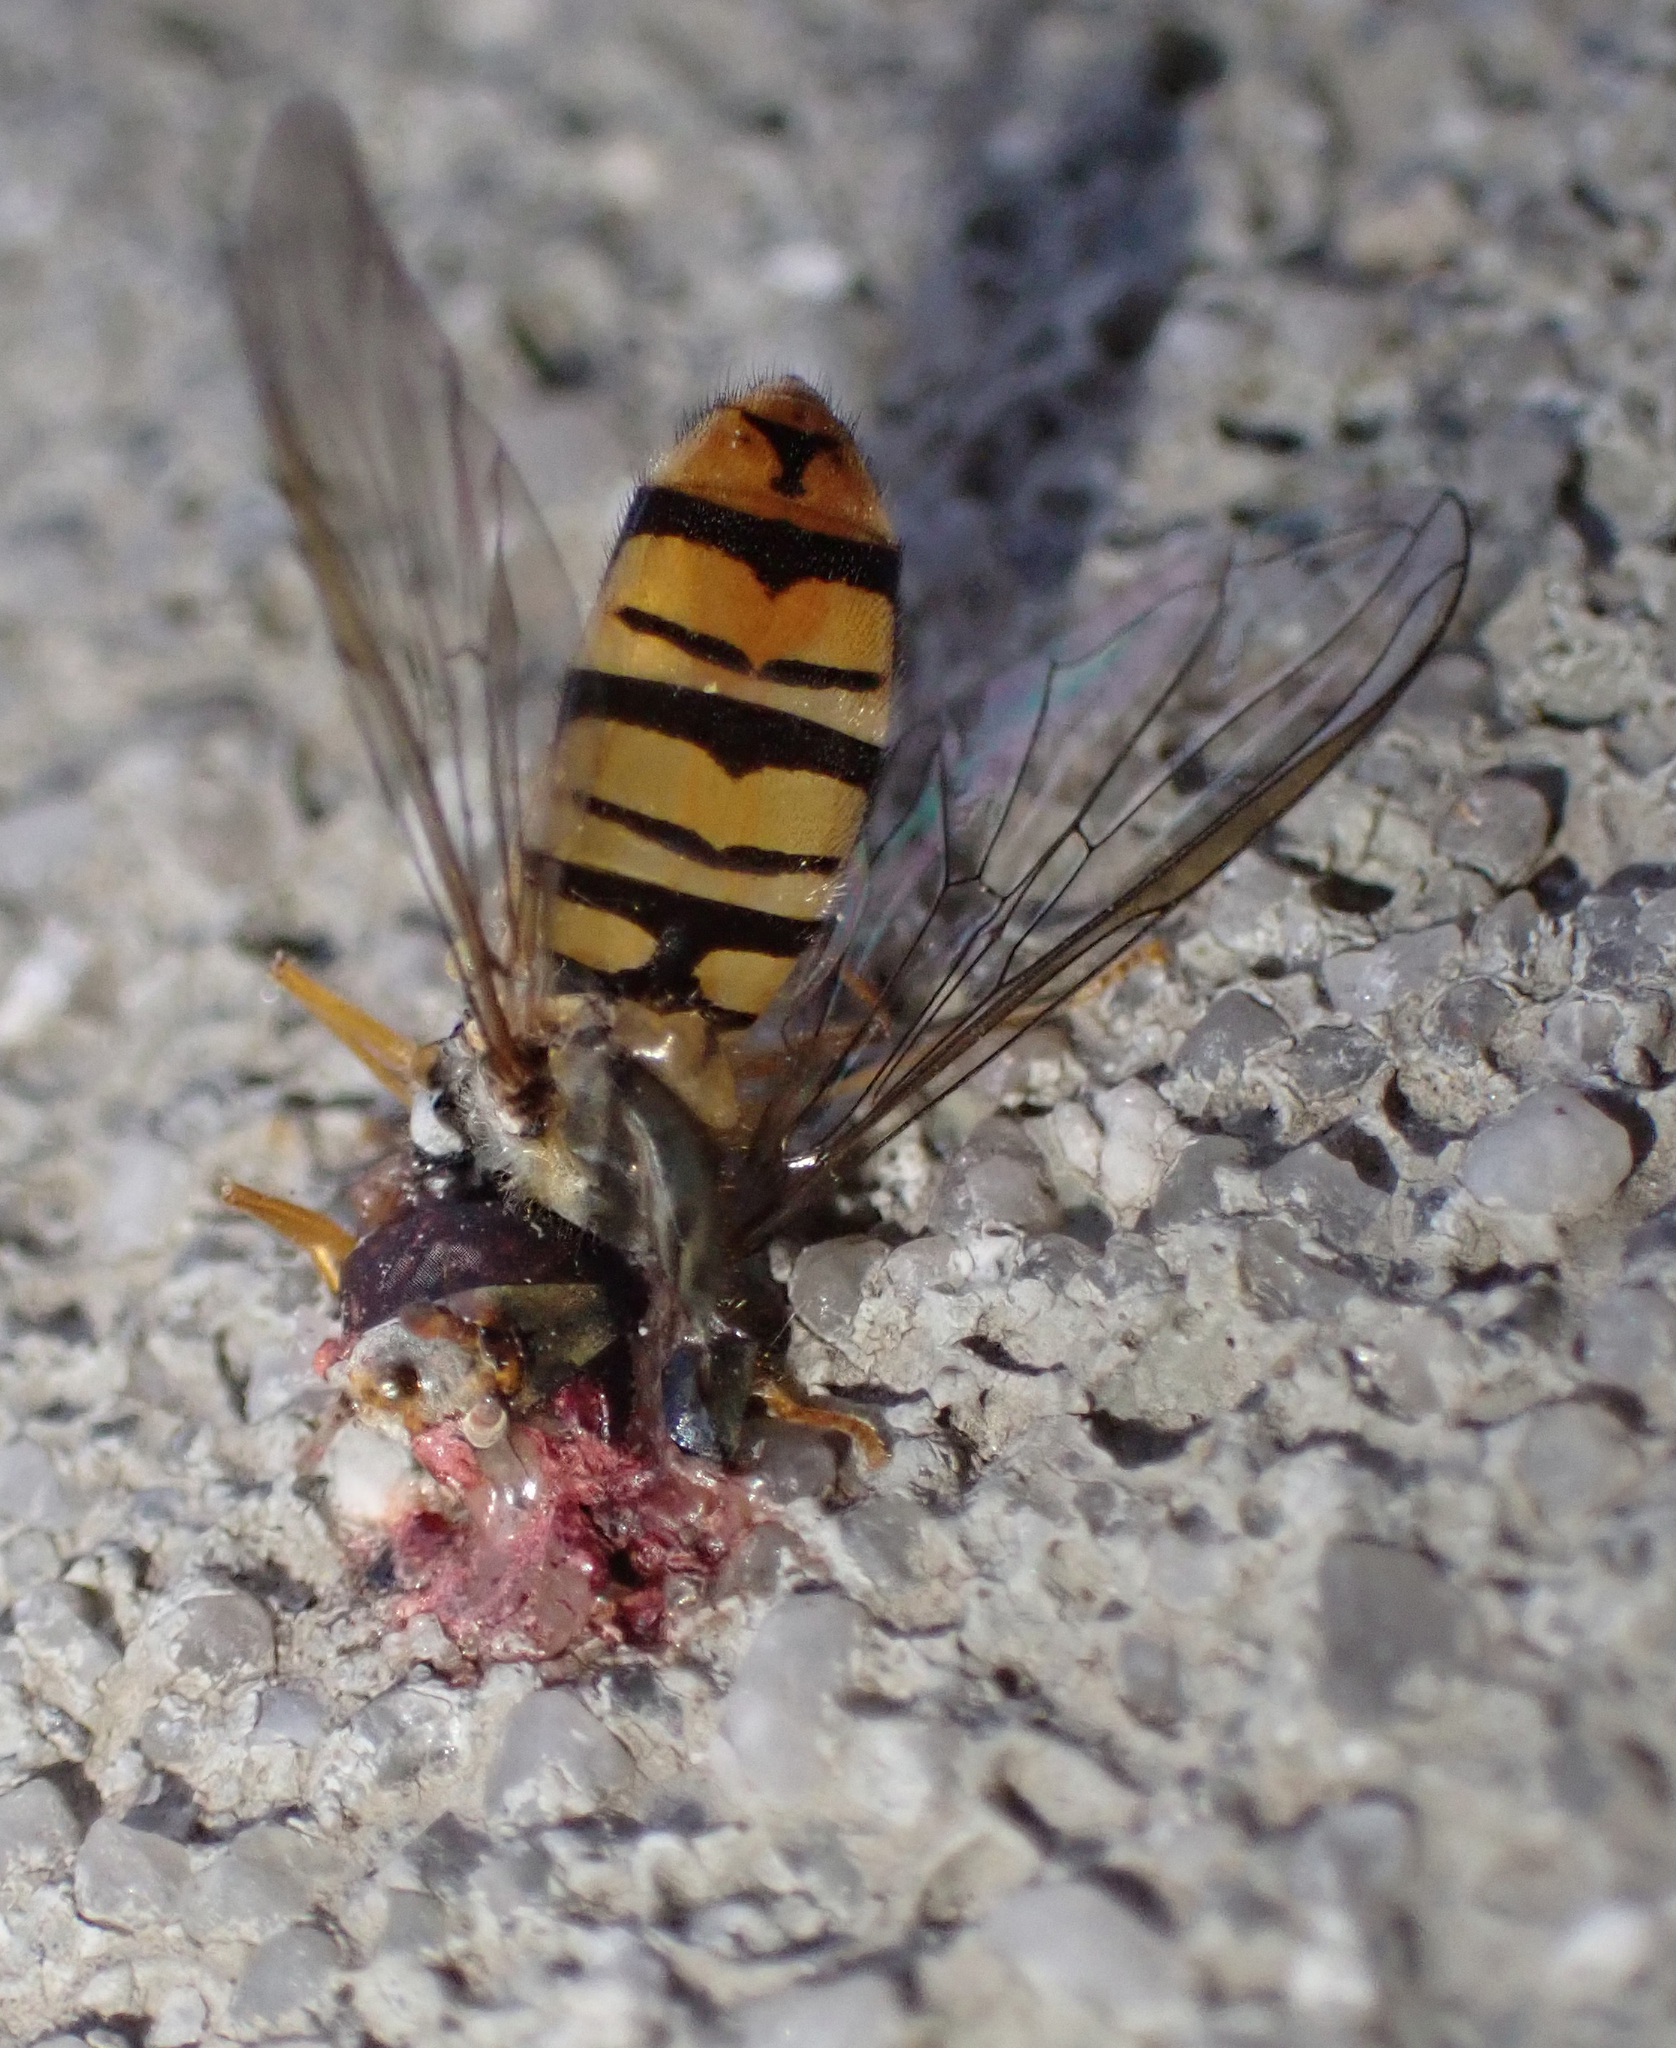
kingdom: Animalia
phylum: Arthropoda
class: Insecta
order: Diptera
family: Syrphidae
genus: Episyrphus
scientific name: Episyrphus balteatus
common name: Marmalade hoverfly
